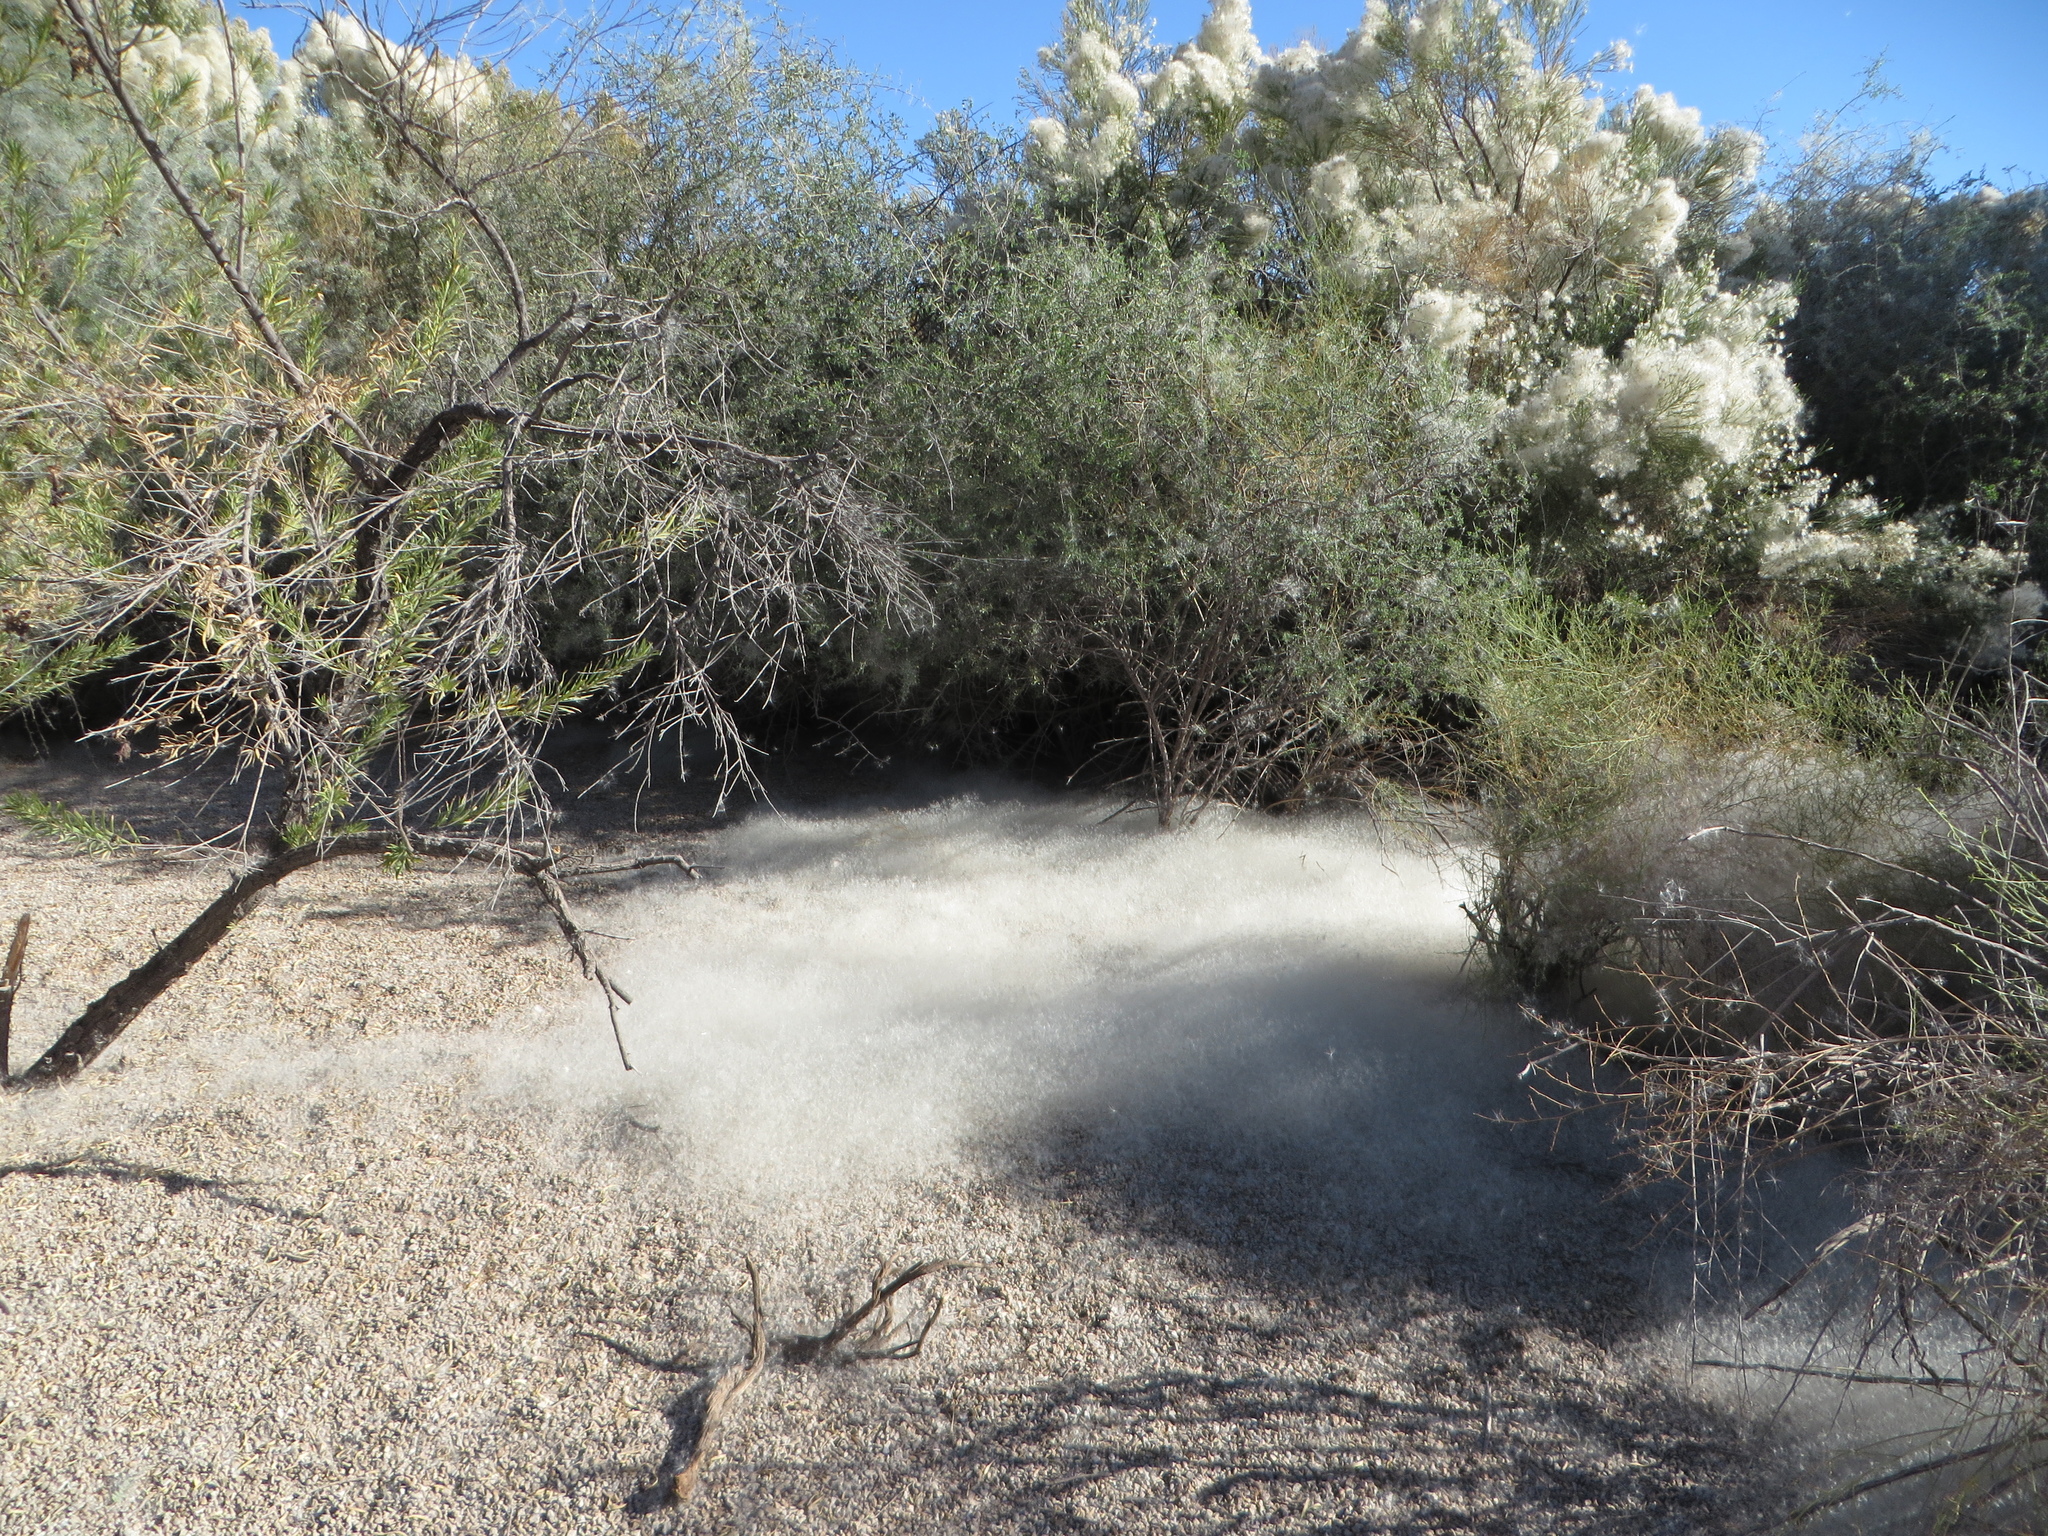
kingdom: Plantae
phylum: Tracheophyta
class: Magnoliopsida
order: Asterales
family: Asteraceae
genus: Baccharis
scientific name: Baccharis sarothroides
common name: Desert-broom
